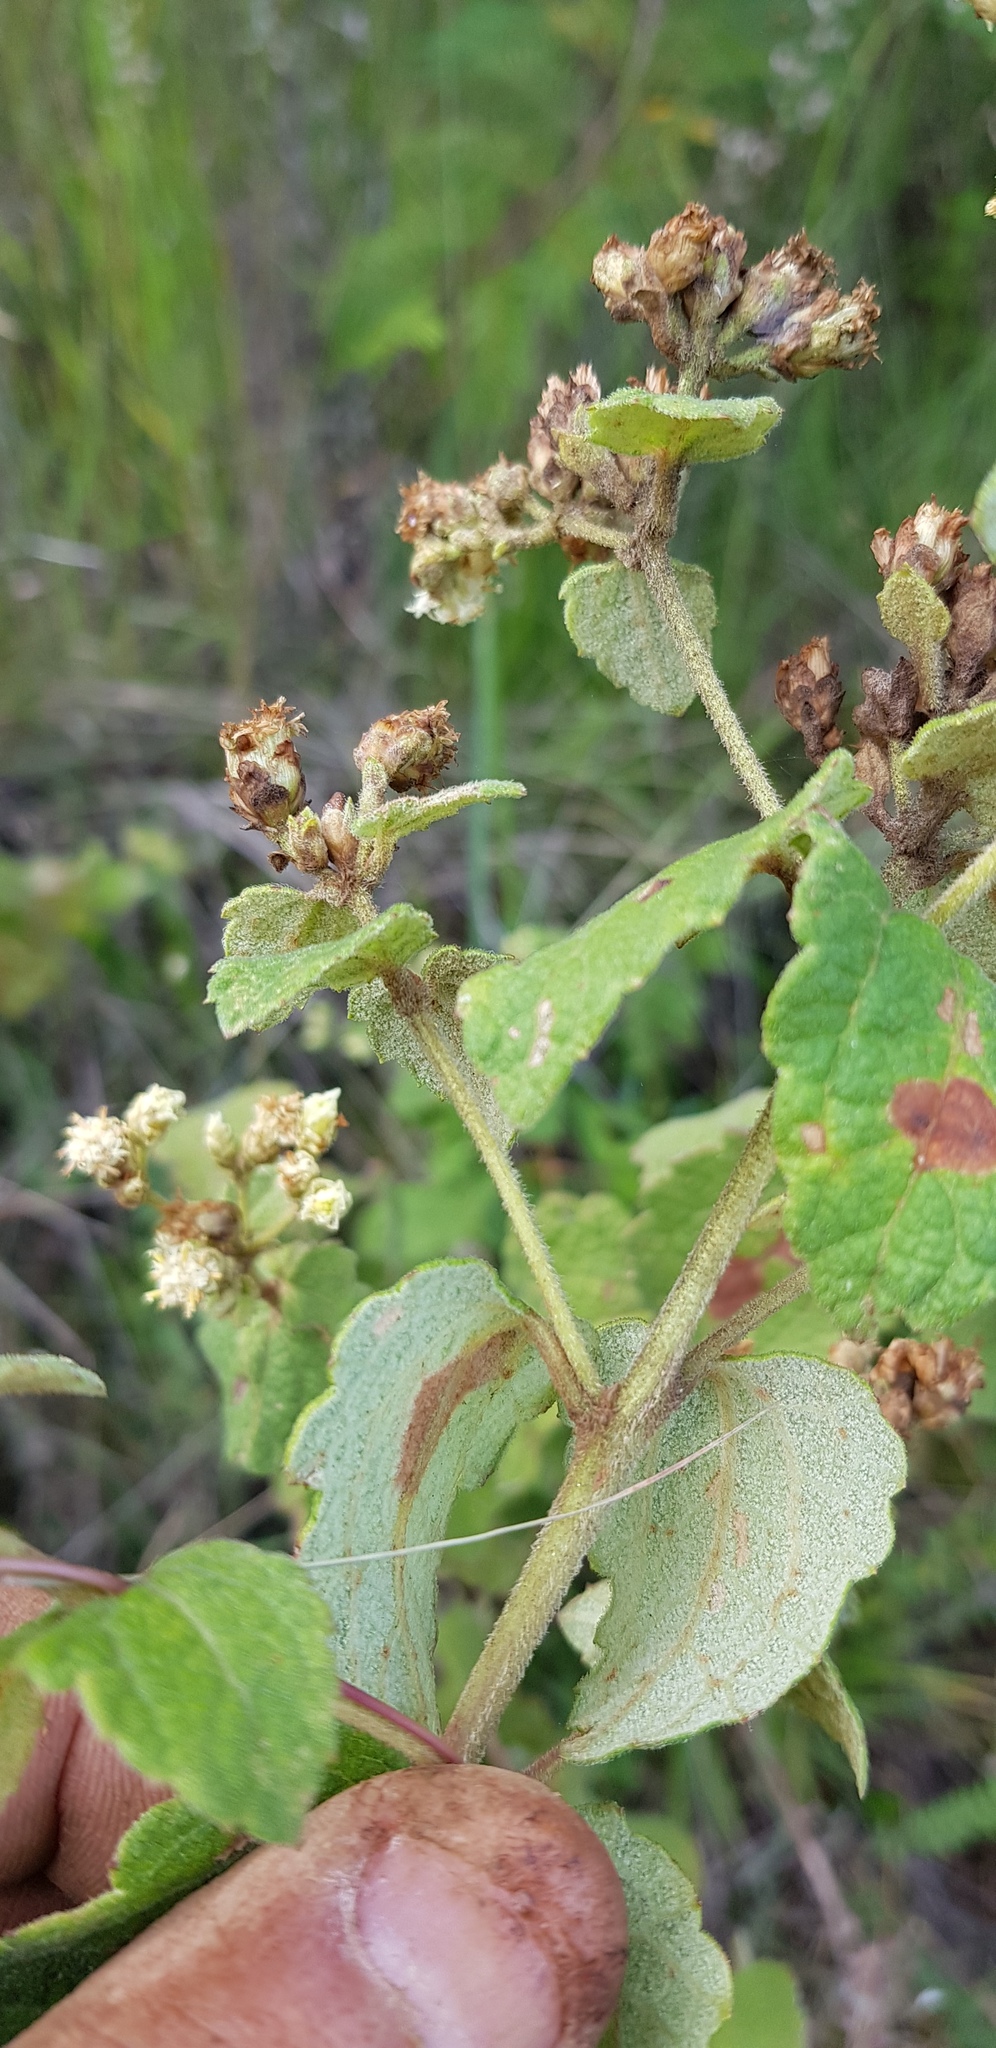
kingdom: Plantae
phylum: Tracheophyta
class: Magnoliopsida
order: Asterales
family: Asteraceae
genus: Calea
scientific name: Calea ternifolia
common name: Mexican calea
